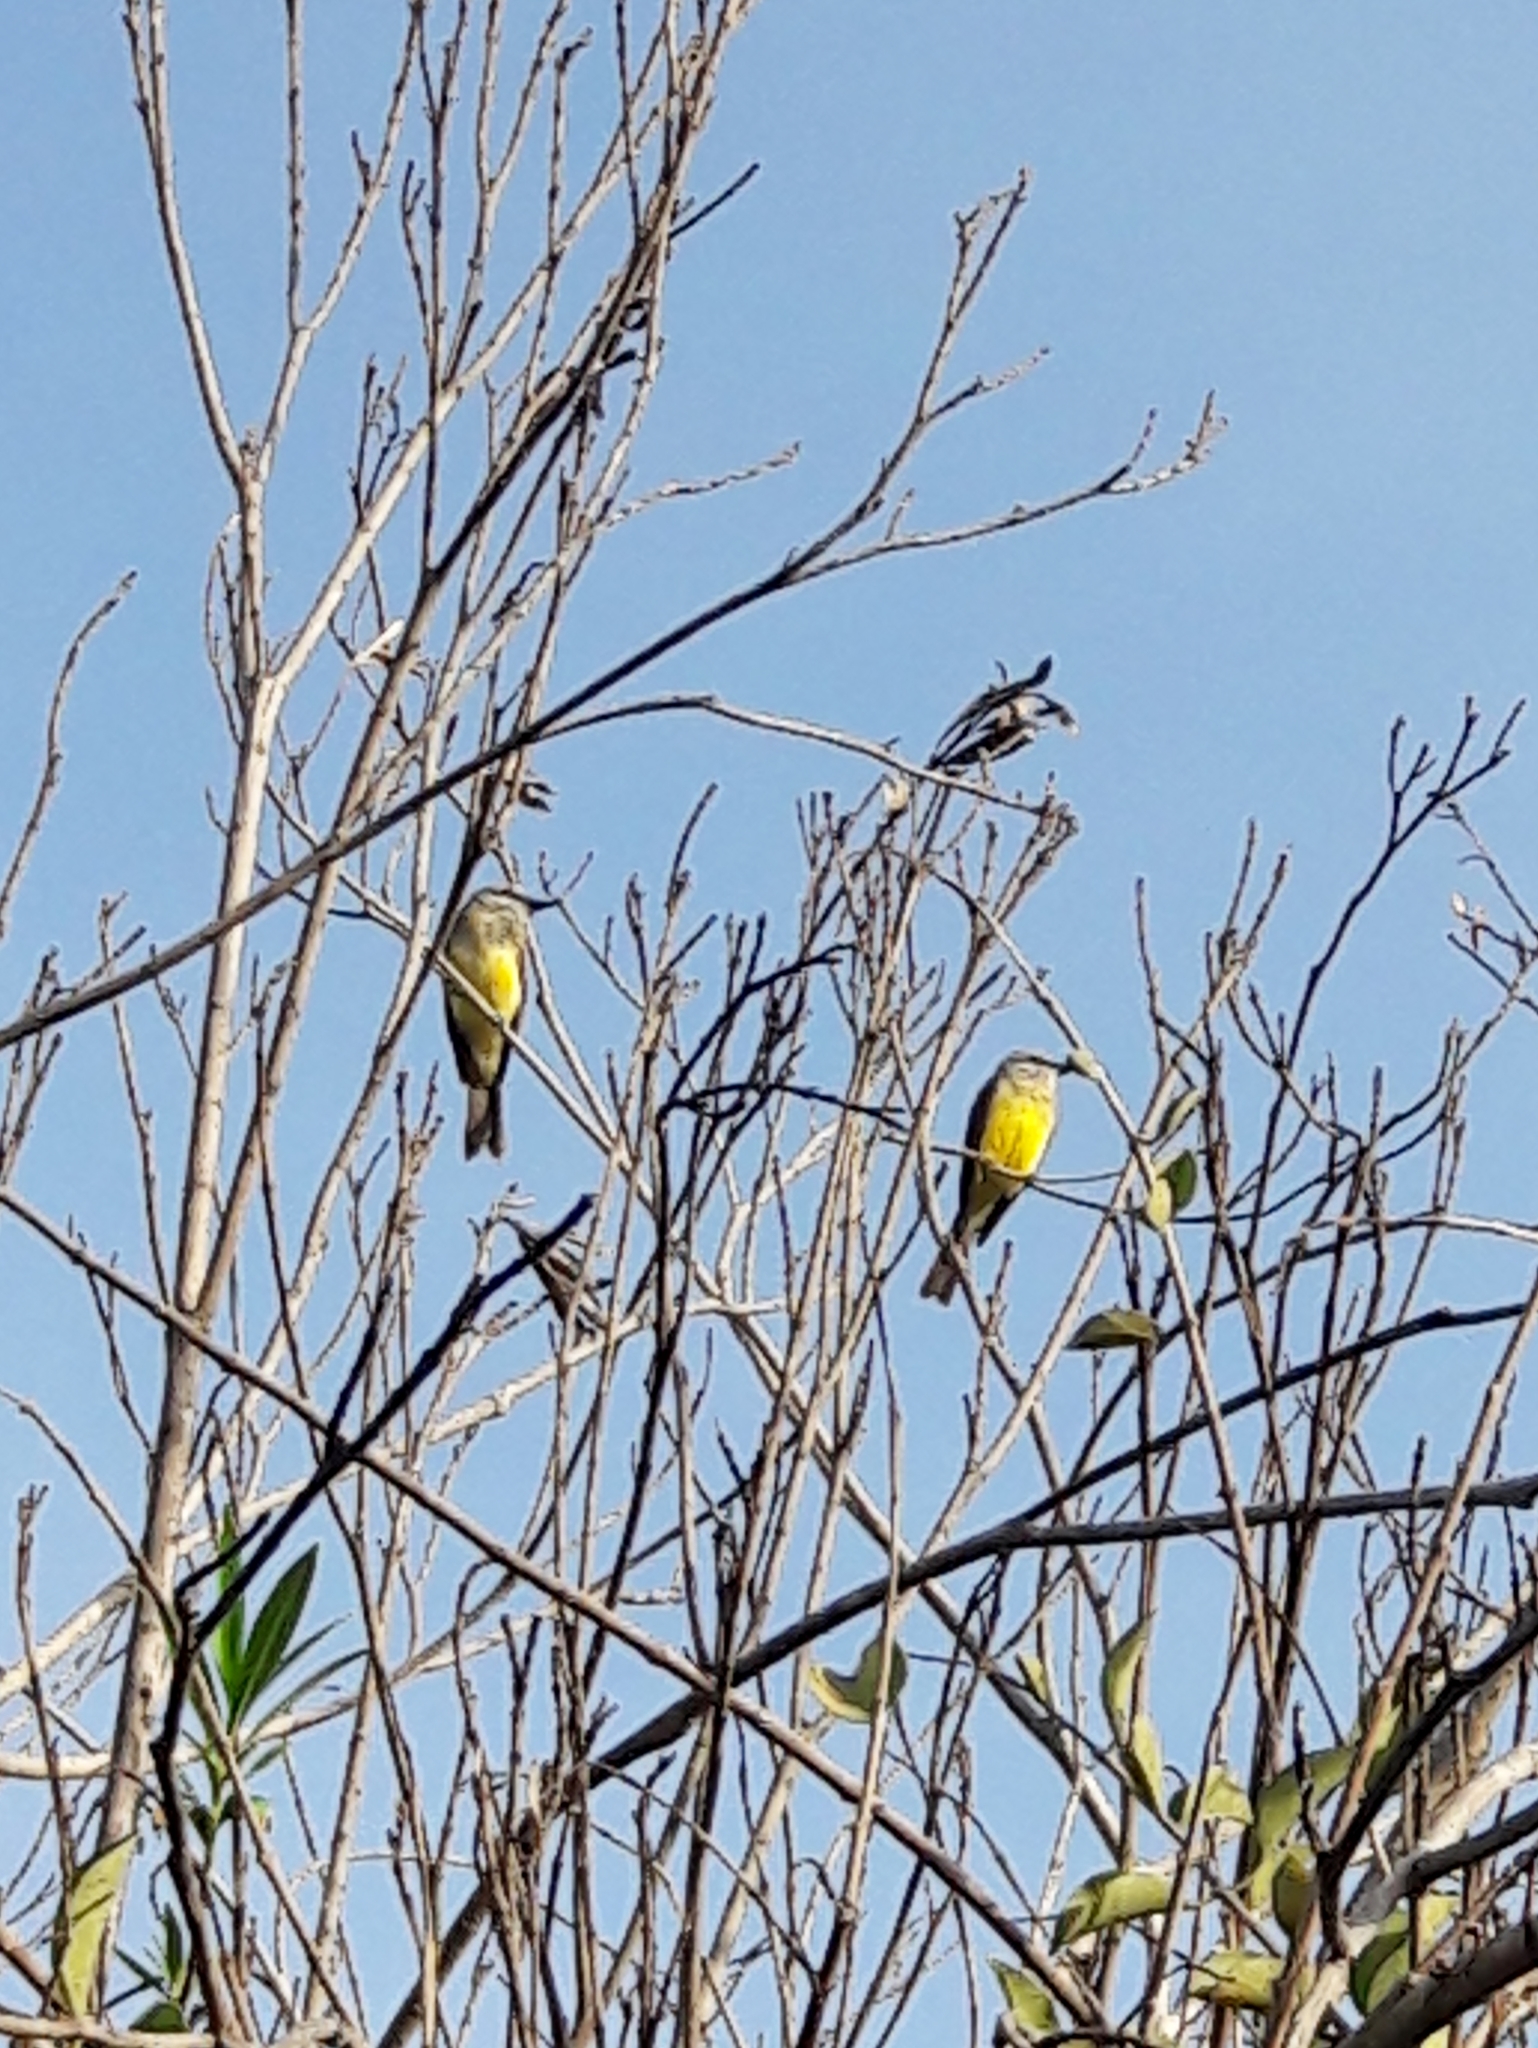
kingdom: Animalia
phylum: Chordata
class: Aves
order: Passeriformes
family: Tyrannidae
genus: Tyrannus
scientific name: Tyrannus melancholicus
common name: Tropical kingbird
